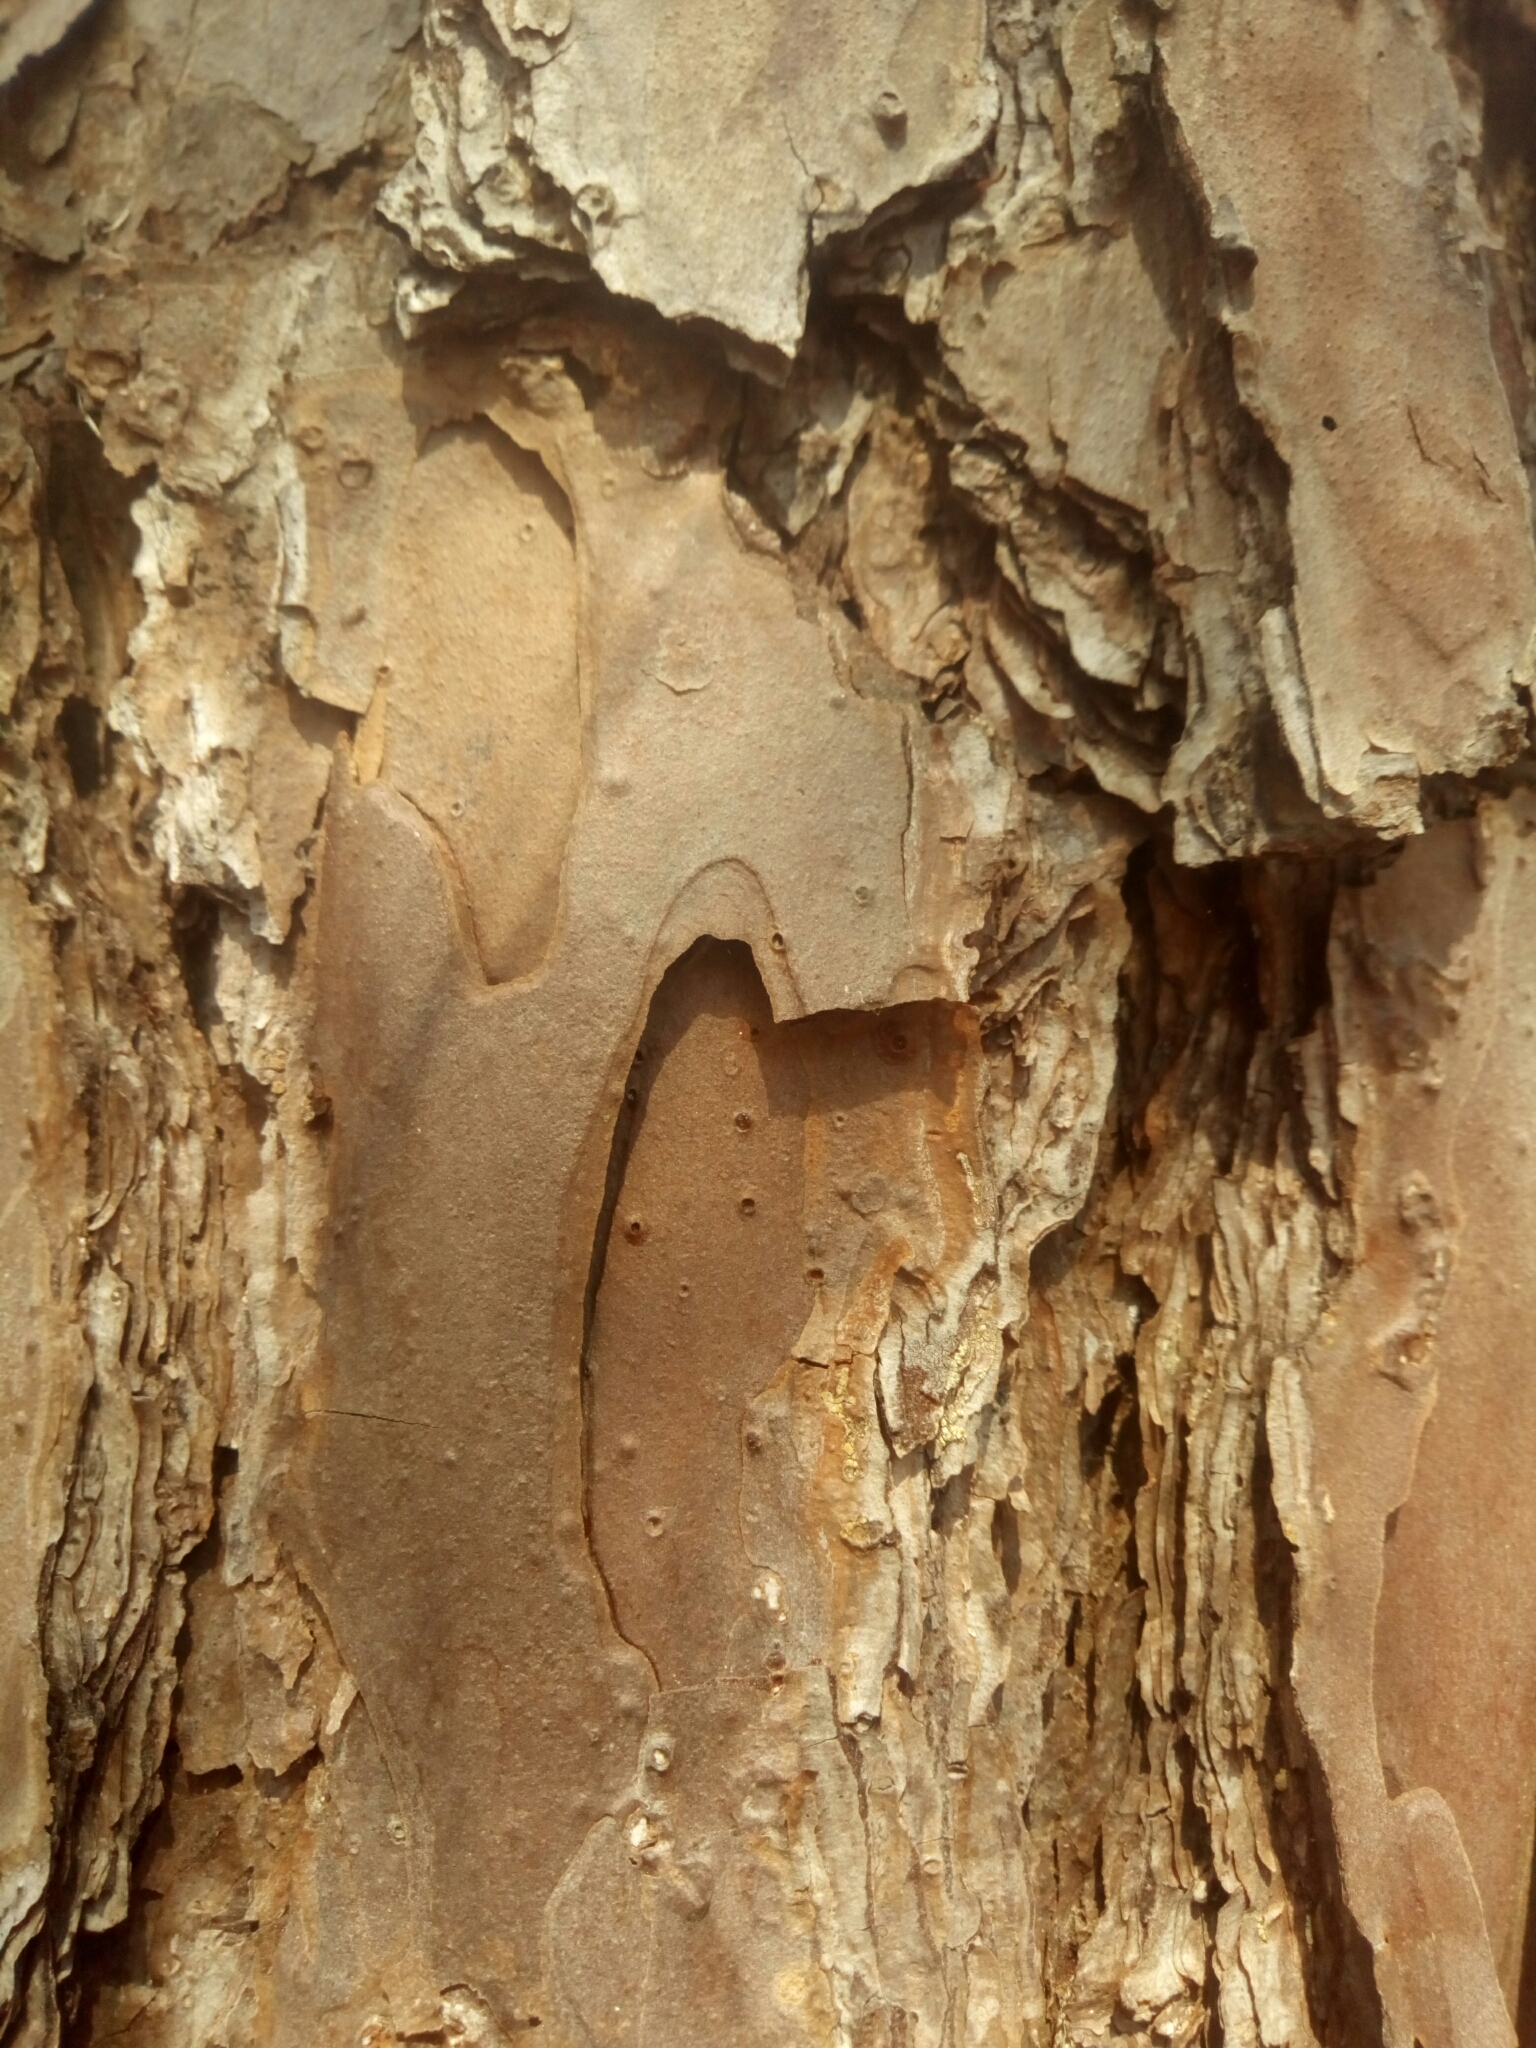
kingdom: Plantae
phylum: Tracheophyta
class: Pinopsida
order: Pinales
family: Pinaceae
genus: Pinus
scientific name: Pinus echinata
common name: Shortleaf pine
